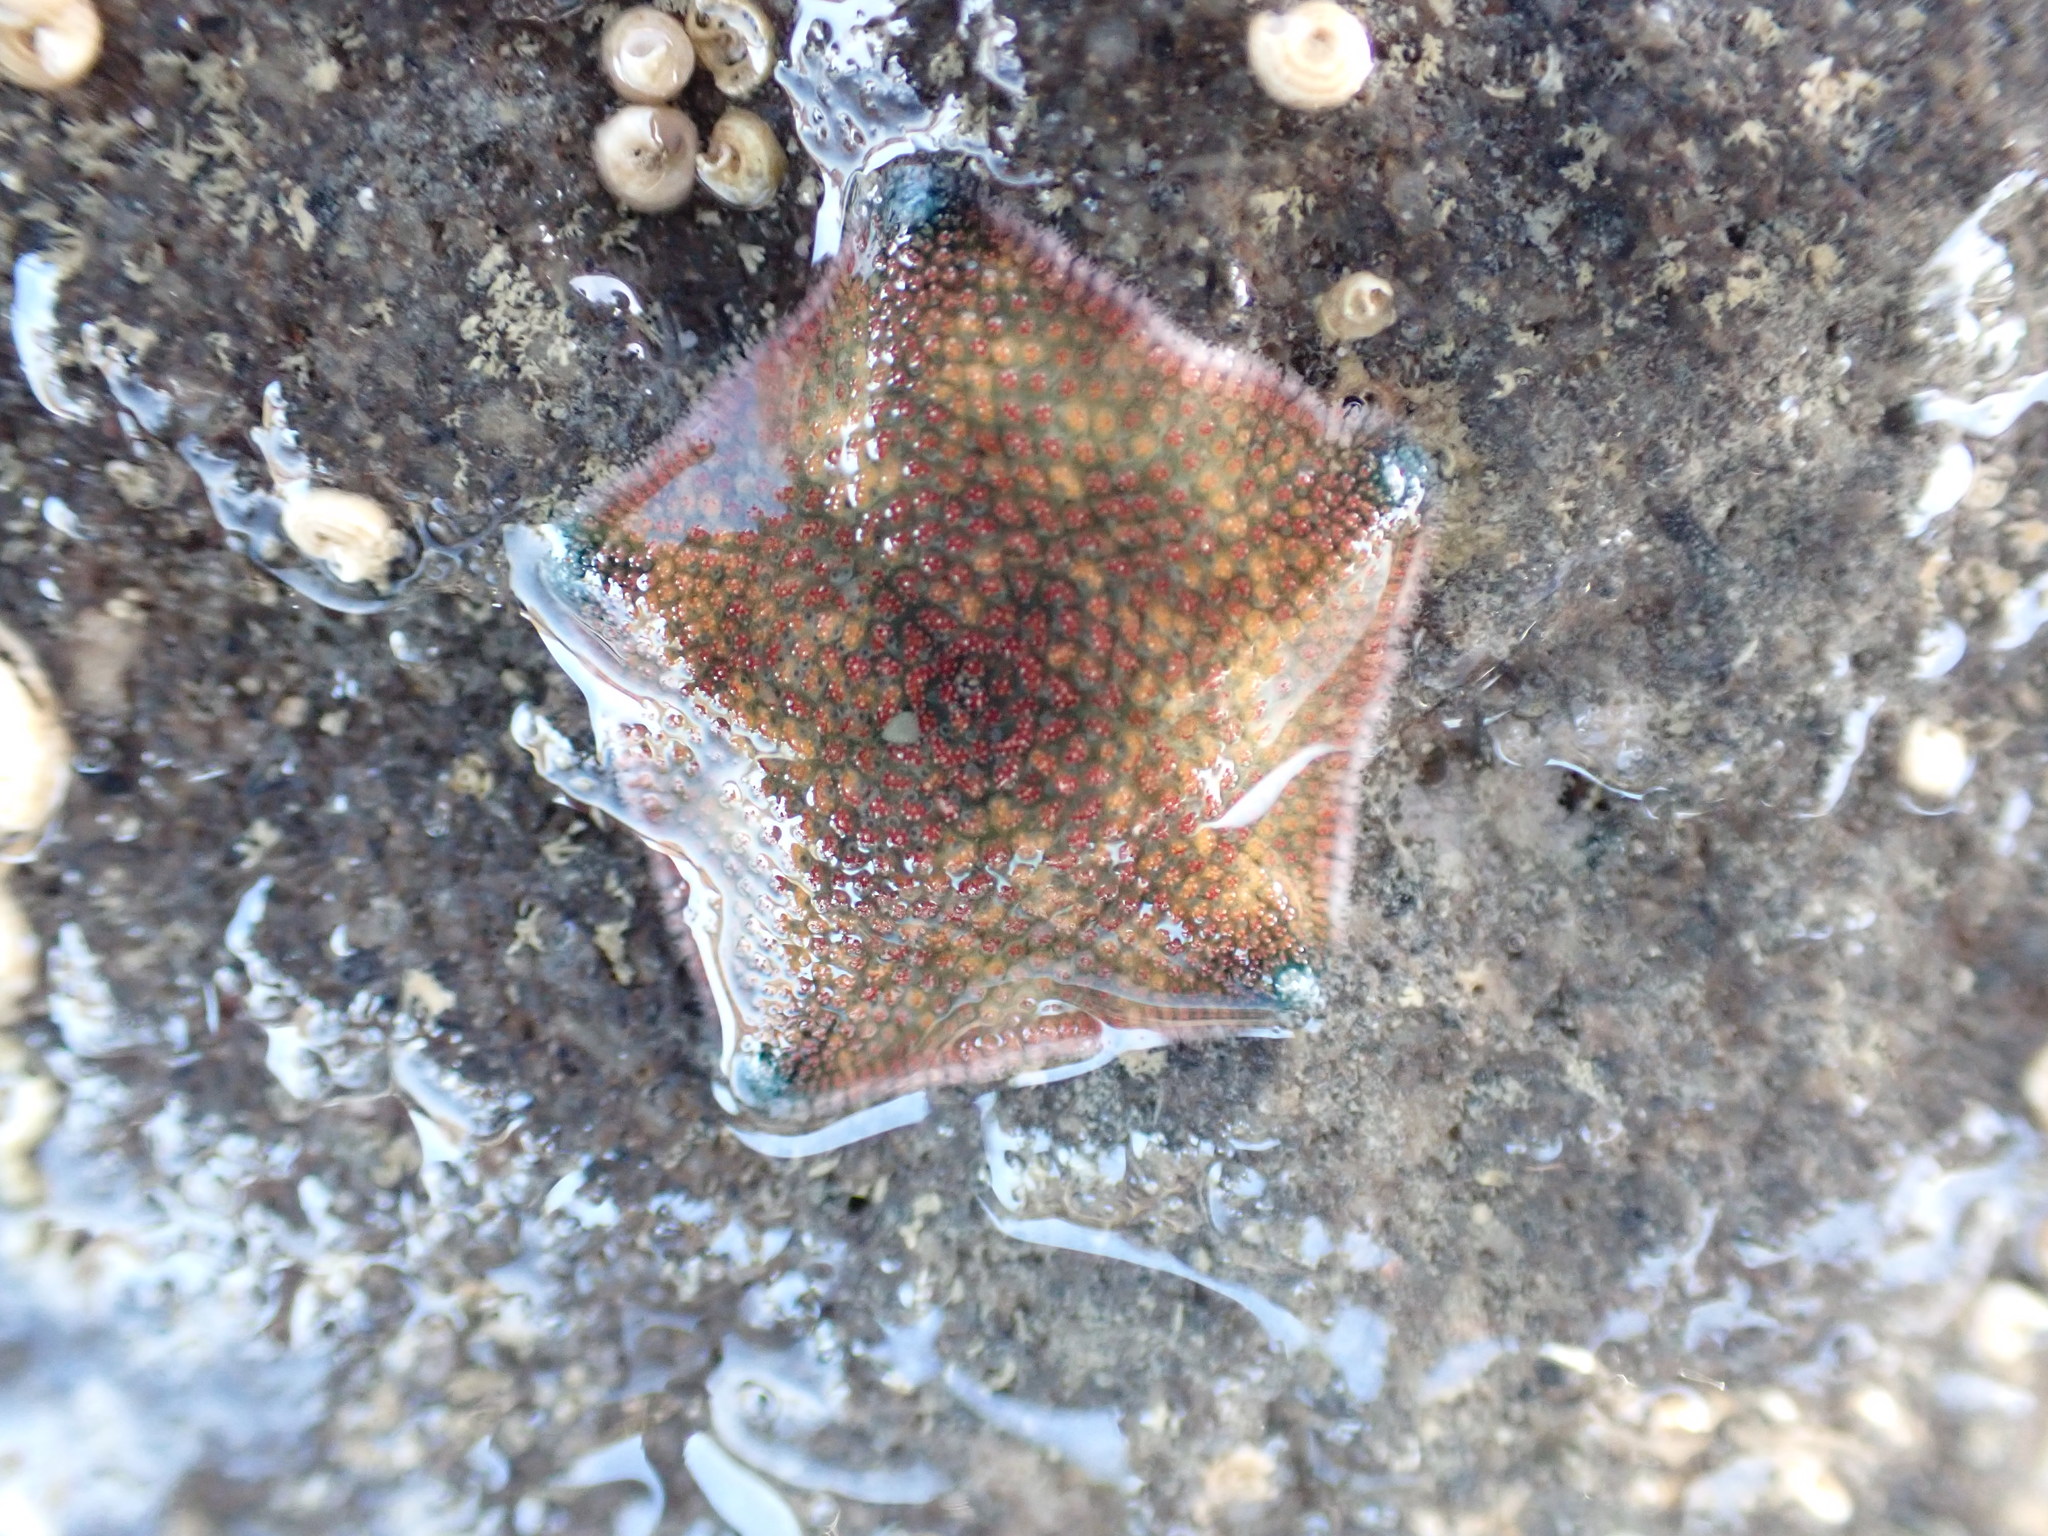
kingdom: Animalia
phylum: Echinodermata
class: Asteroidea
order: Valvatida
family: Asterinidae
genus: Patiriella
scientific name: Patiriella regularis
